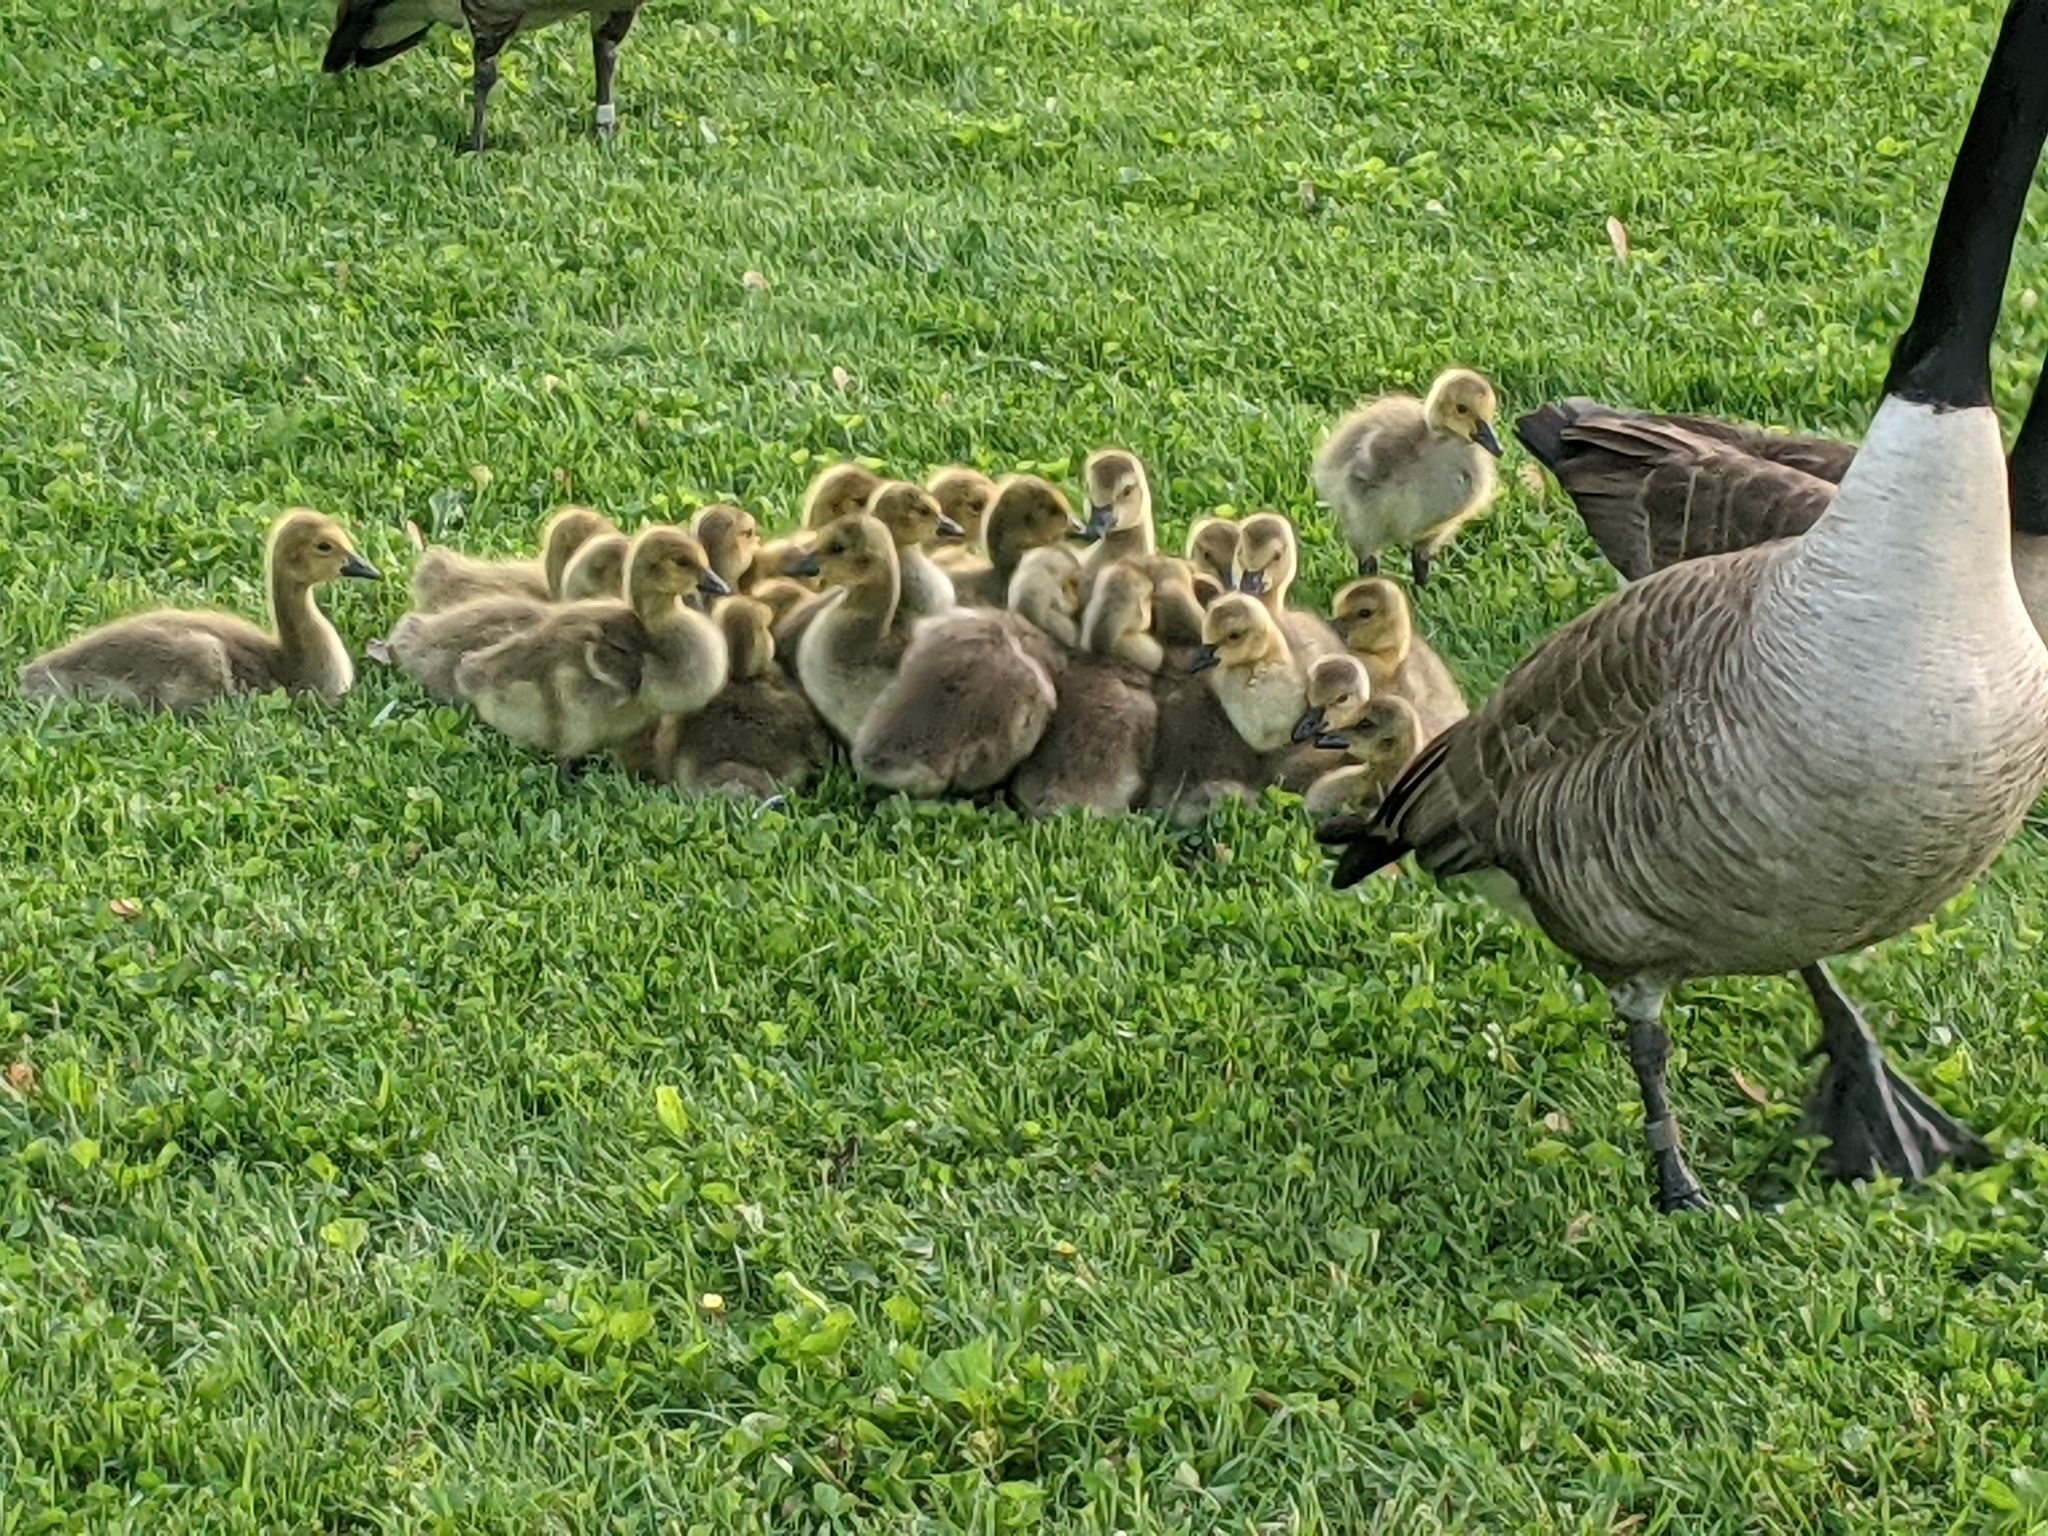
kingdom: Animalia
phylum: Chordata
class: Aves
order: Anseriformes
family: Anatidae
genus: Branta
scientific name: Branta canadensis
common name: Canada goose
